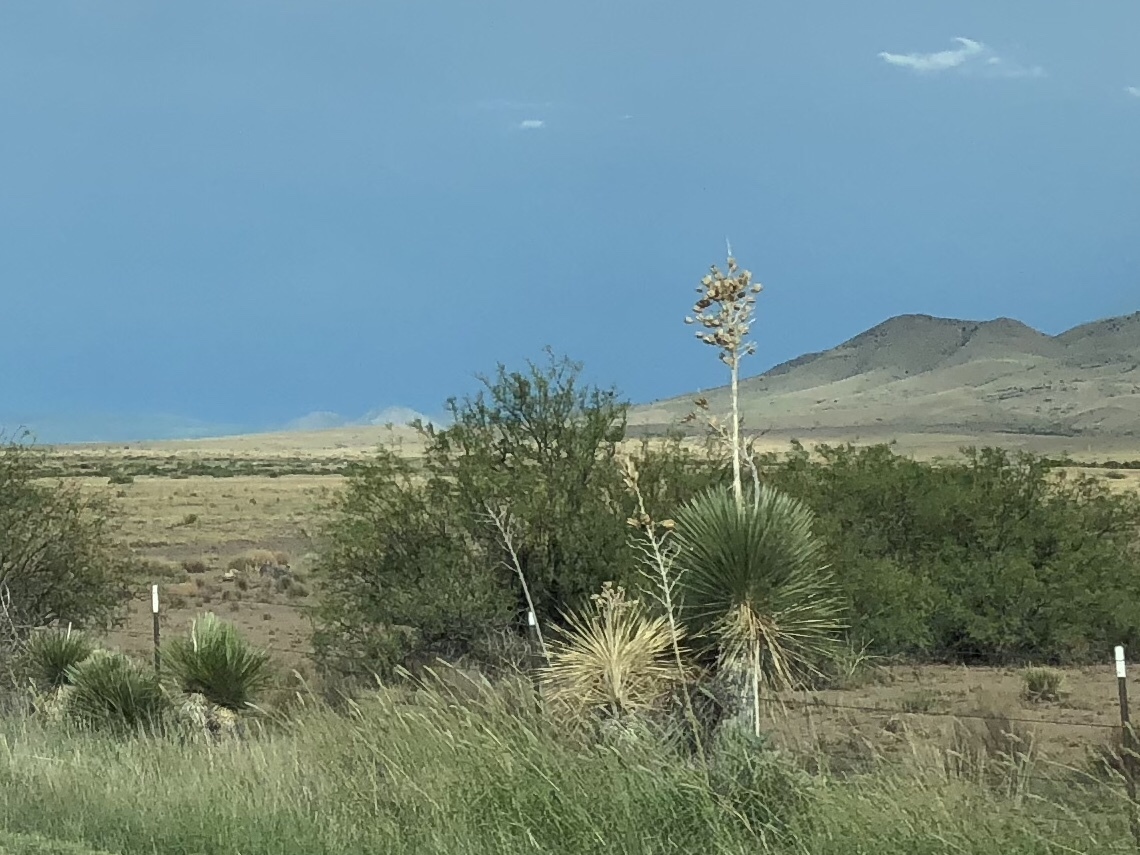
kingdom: Plantae
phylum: Tracheophyta
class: Liliopsida
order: Asparagales
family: Asparagaceae
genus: Yucca
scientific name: Yucca elata
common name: Palmella
